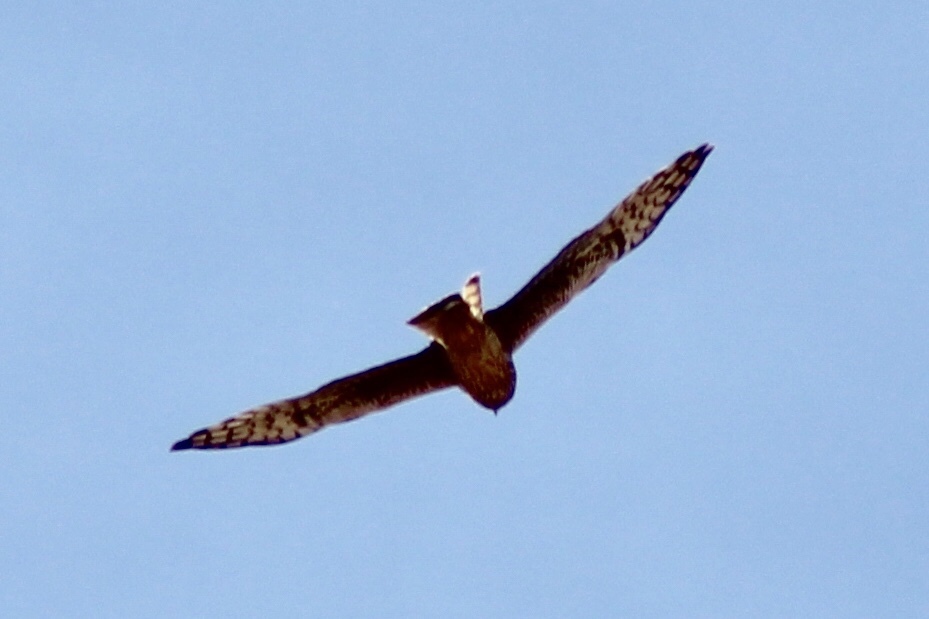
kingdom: Animalia
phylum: Chordata
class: Aves
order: Accipitriformes
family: Accipitridae
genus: Circus
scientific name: Circus cyaneus
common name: Hen harrier
